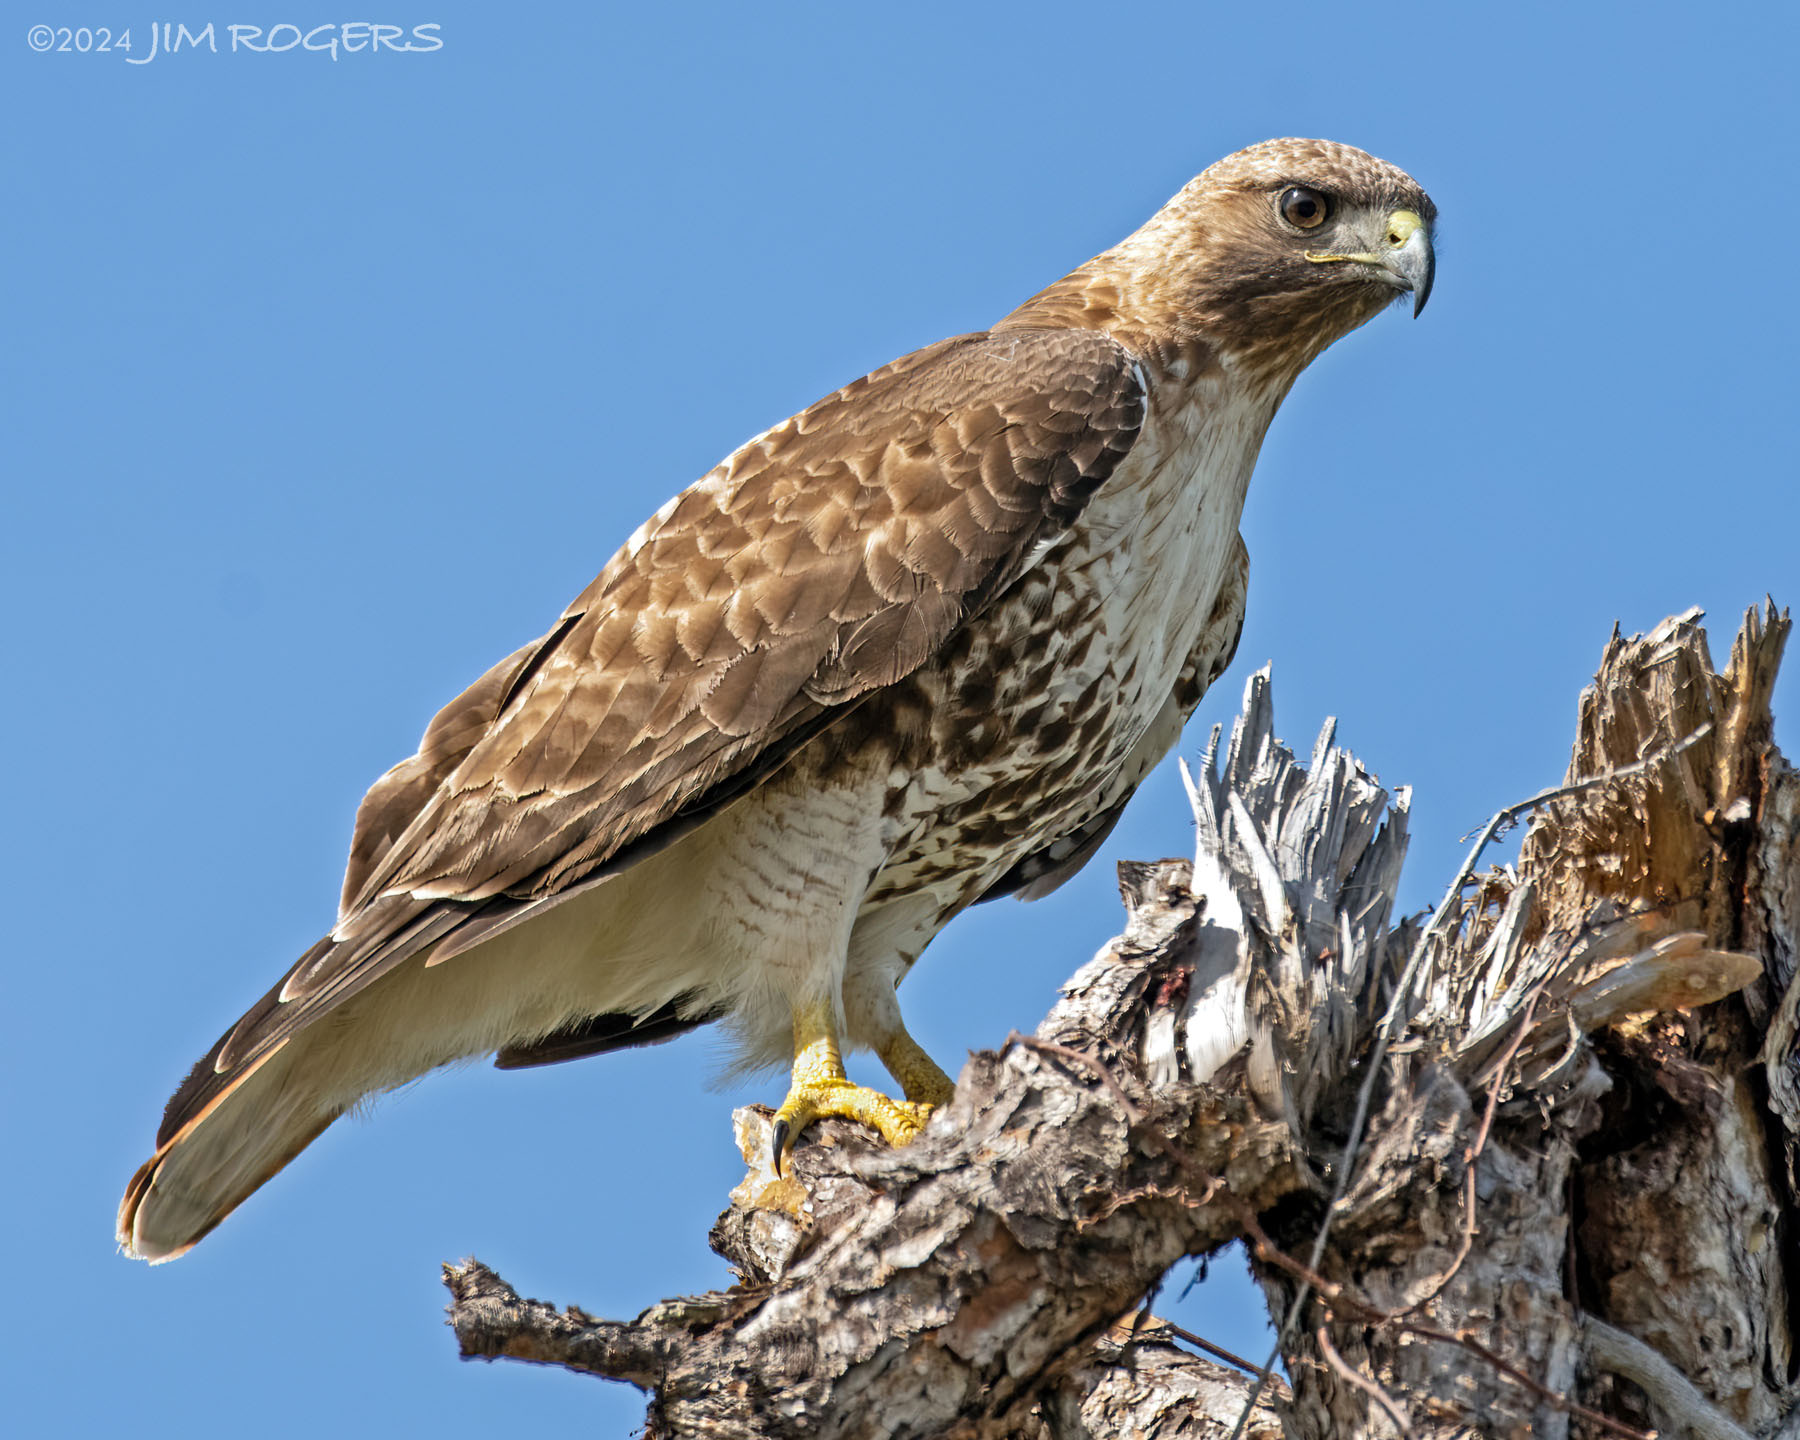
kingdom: Animalia
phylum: Chordata
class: Aves
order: Accipitriformes
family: Accipitridae
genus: Buteo
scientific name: Buteo jamaicensis
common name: Red-tailed hawk
